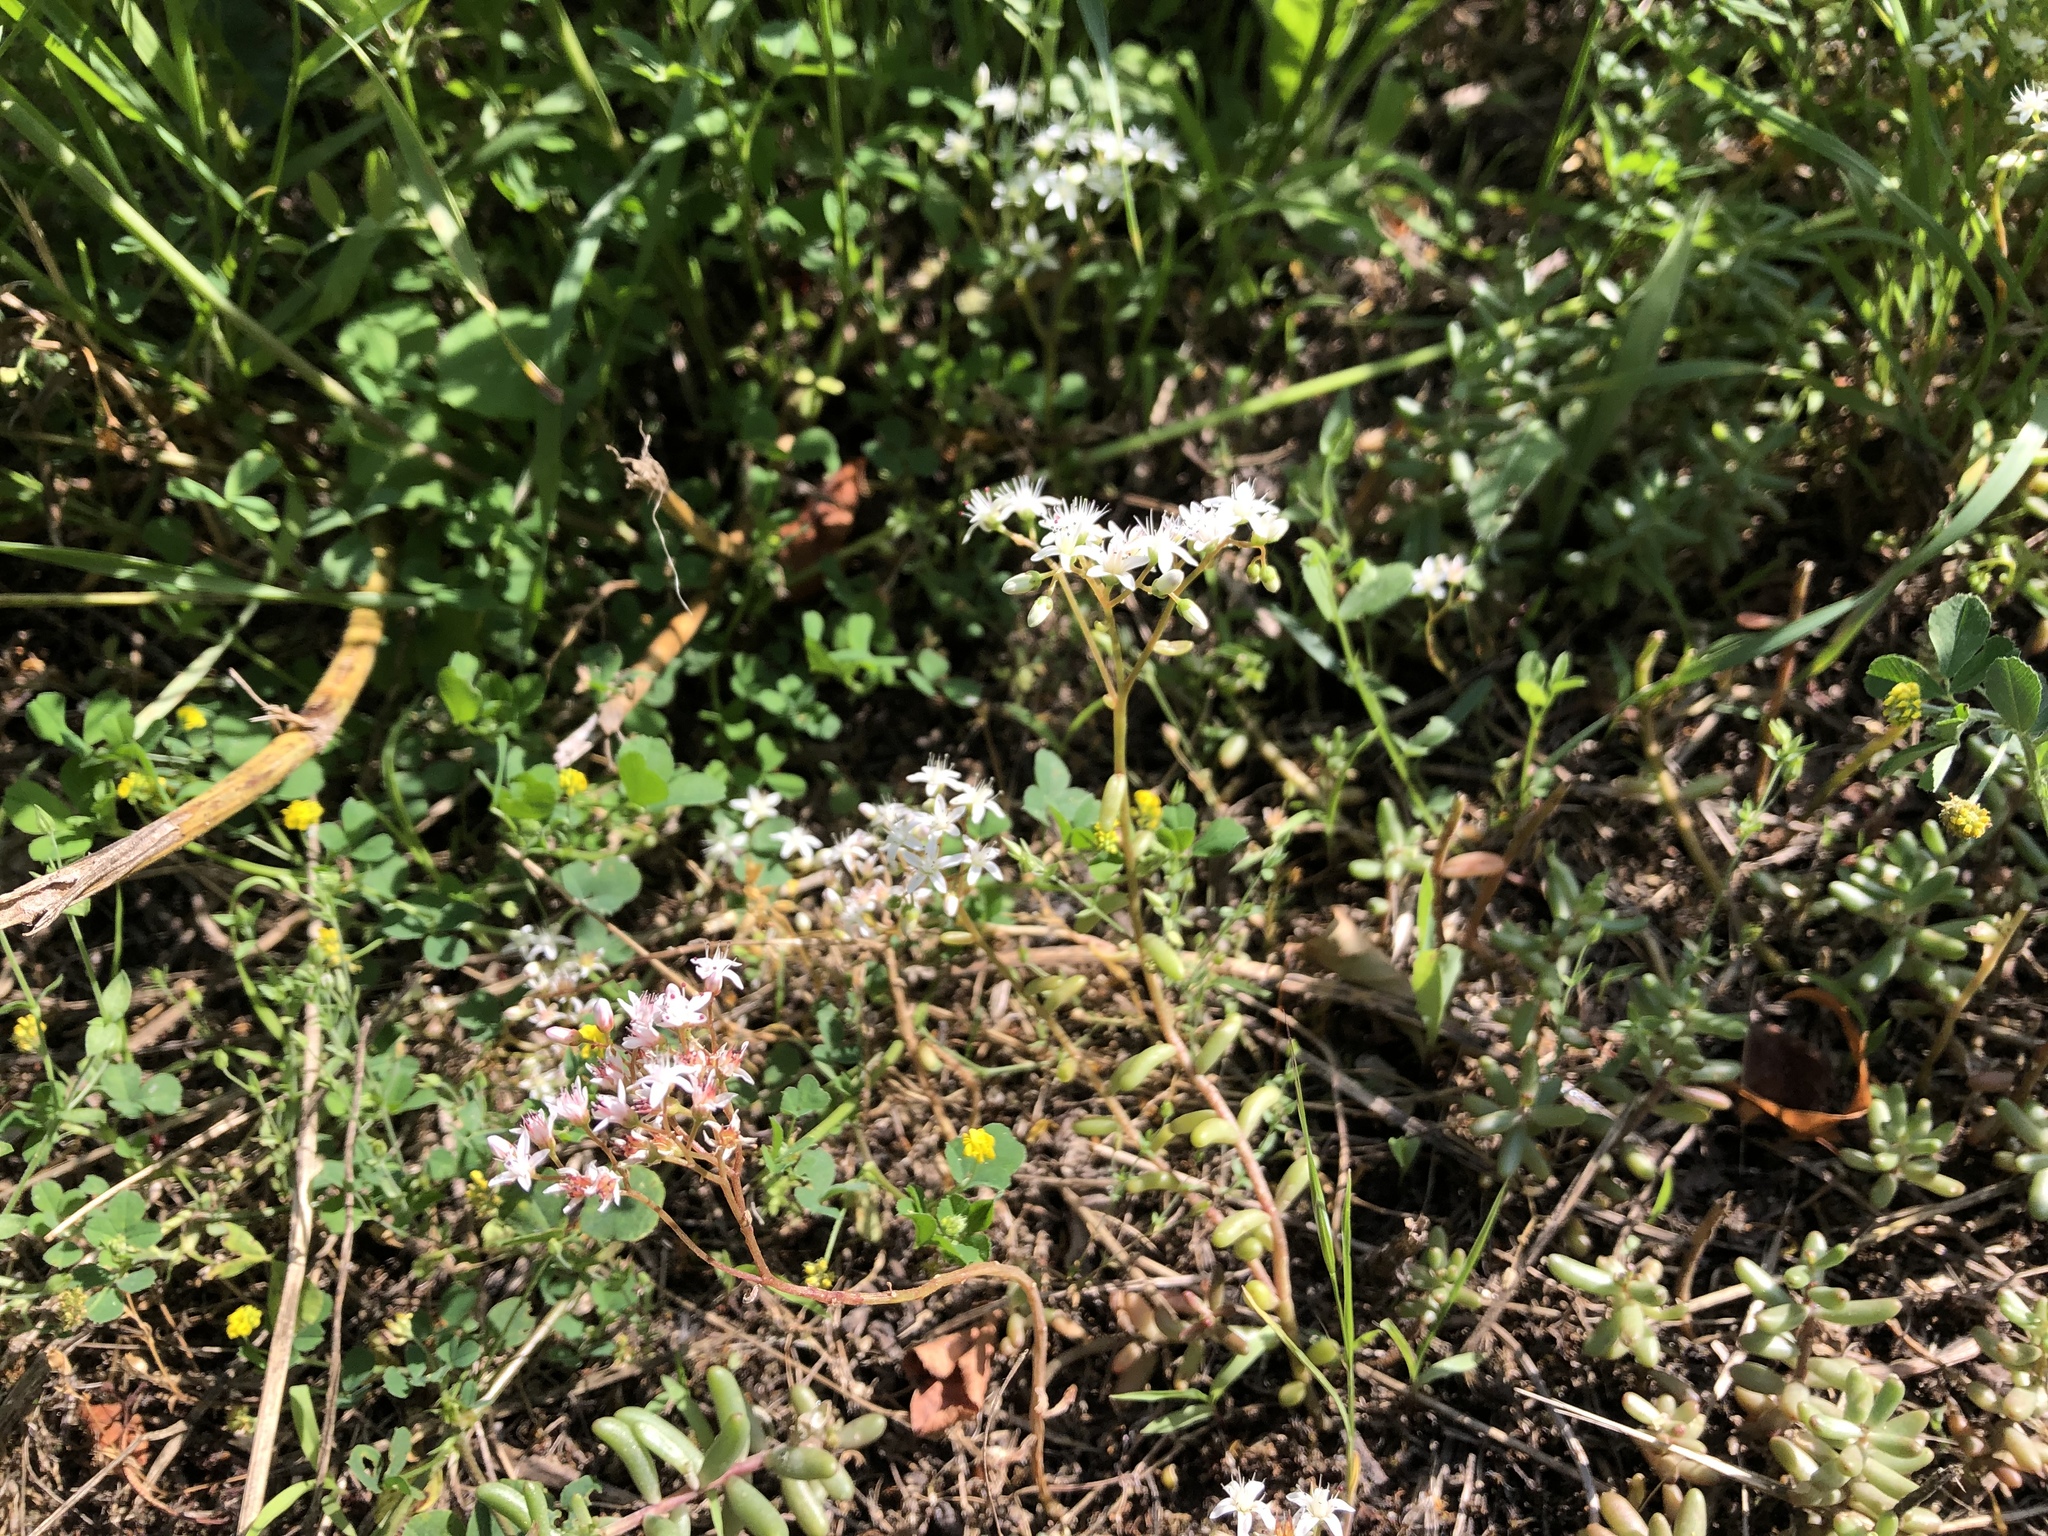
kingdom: Plantae
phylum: Tracheophyta
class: Magnoliopsida
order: Saxifragales
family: Crassulaceae
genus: Sedum
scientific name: Sedum album
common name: White stonecrop
